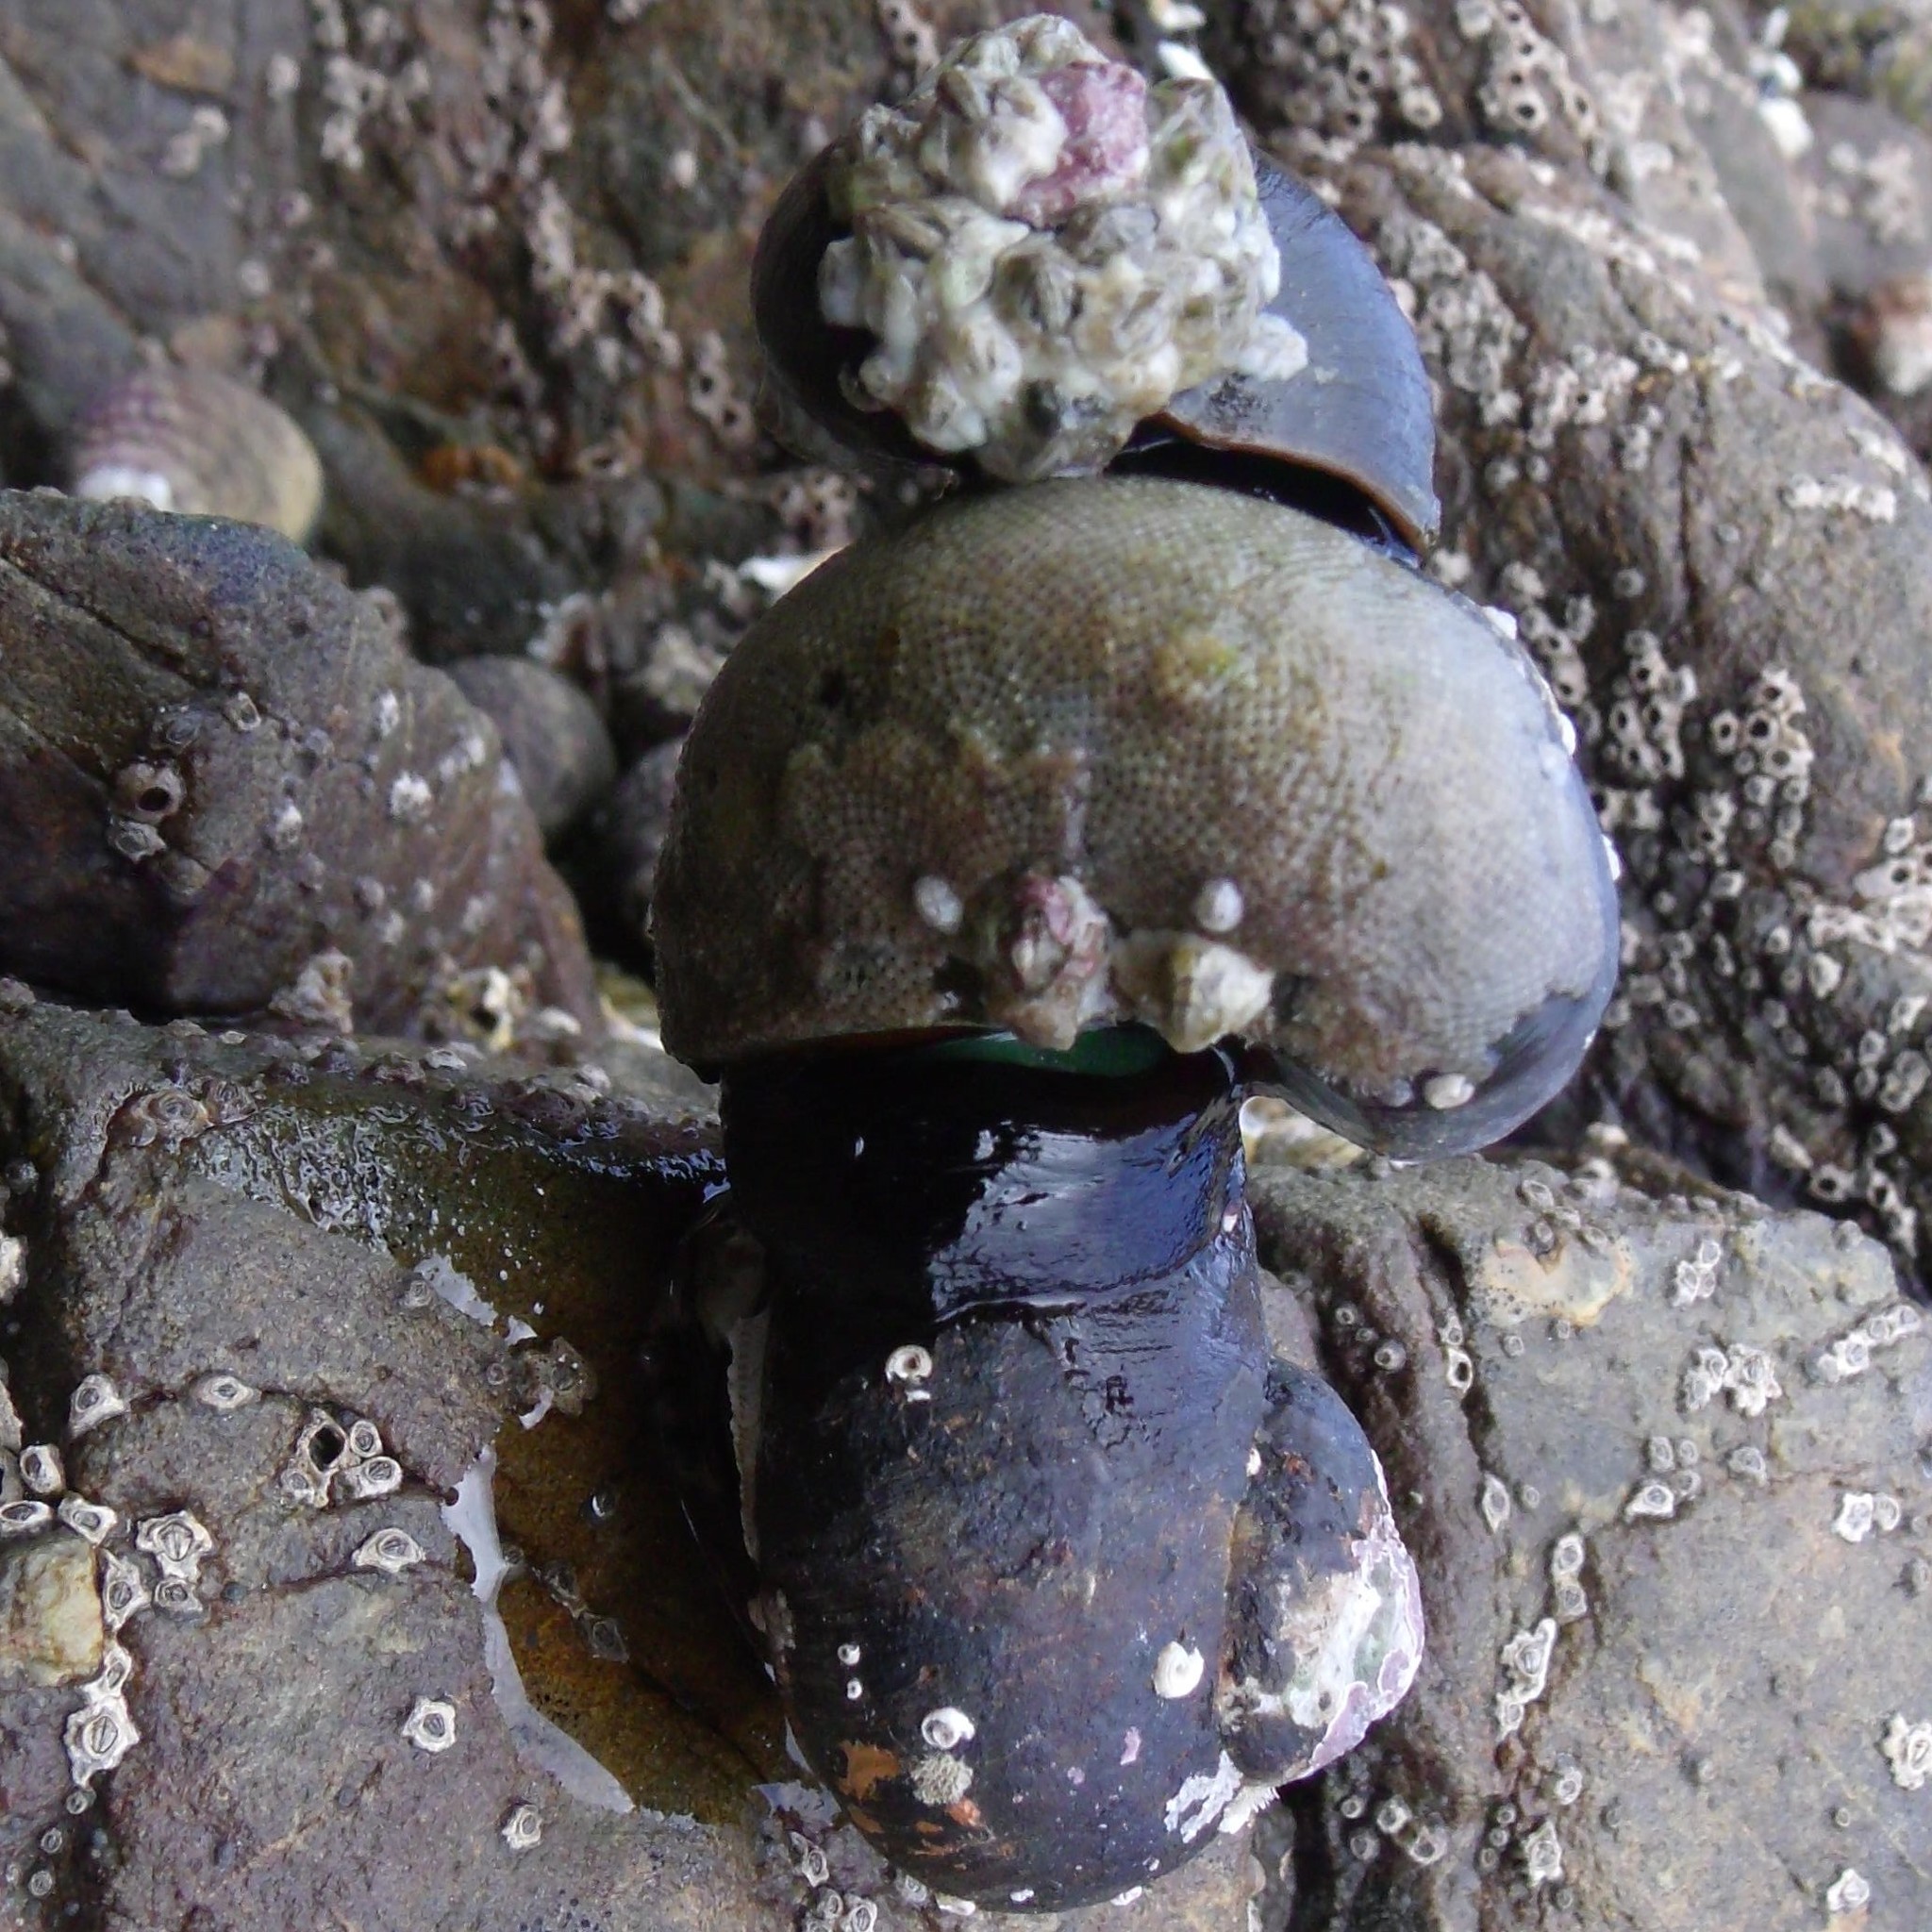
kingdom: Animalia
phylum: Mollusca
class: Gastropoda
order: Trochida
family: Turbinidae
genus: Lunella
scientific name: Lunella smaragda
